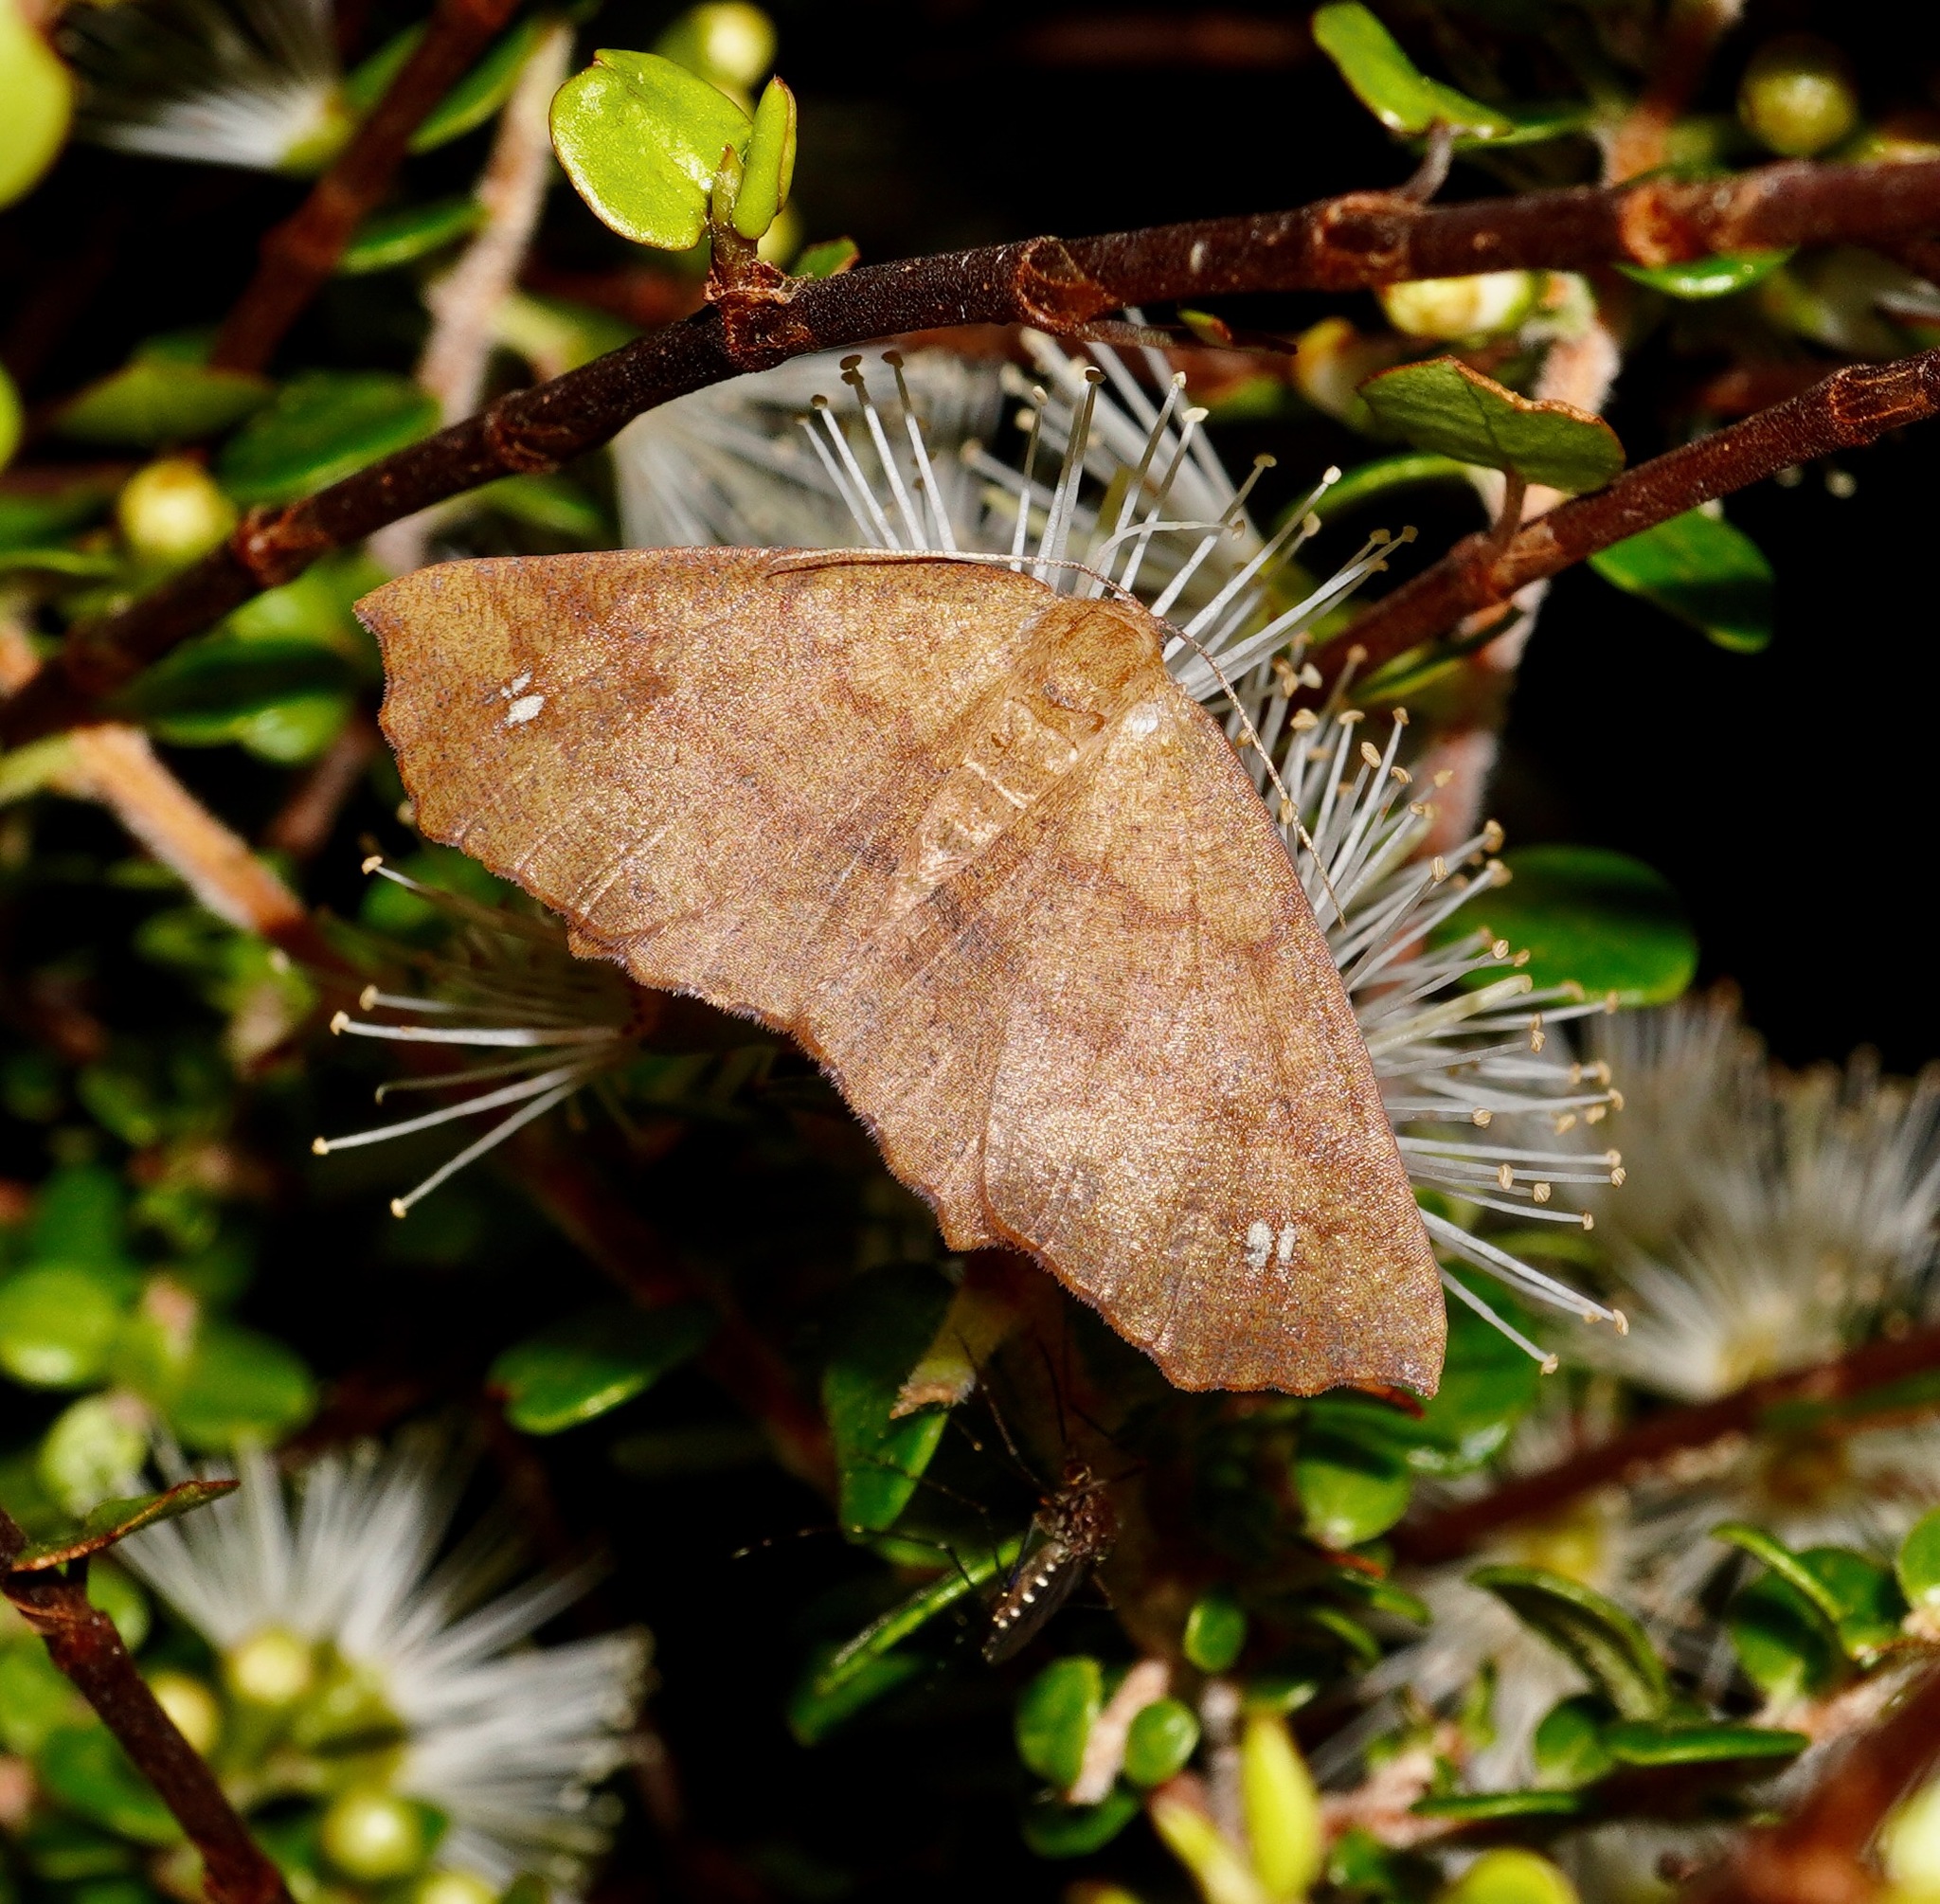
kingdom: Animalia
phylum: Arthropoda
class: Insecta
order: Lepidoptera
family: Geometridae
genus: Xyridacma
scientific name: Xyridacma ustaria
